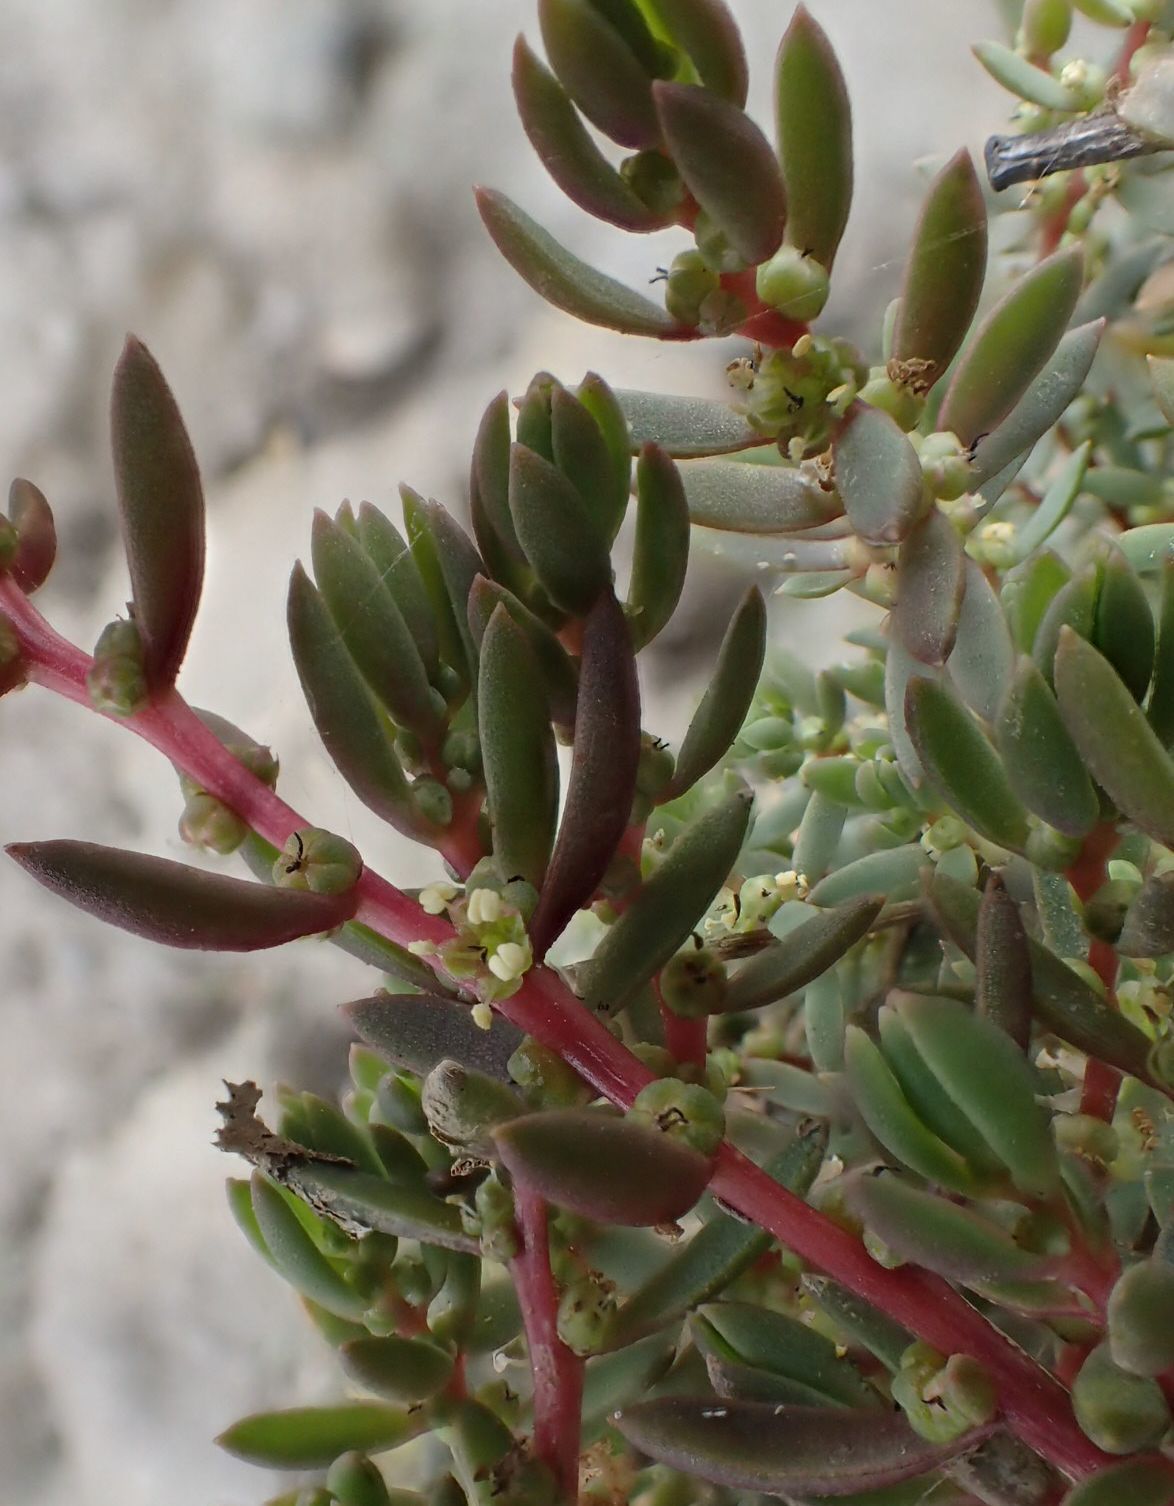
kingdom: Plantae
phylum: Tracheophyta
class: Magnoliopsida
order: Caryophyllales
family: Amaranthaceae
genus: Suaeda
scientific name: Suaeda novae-zelandiae
